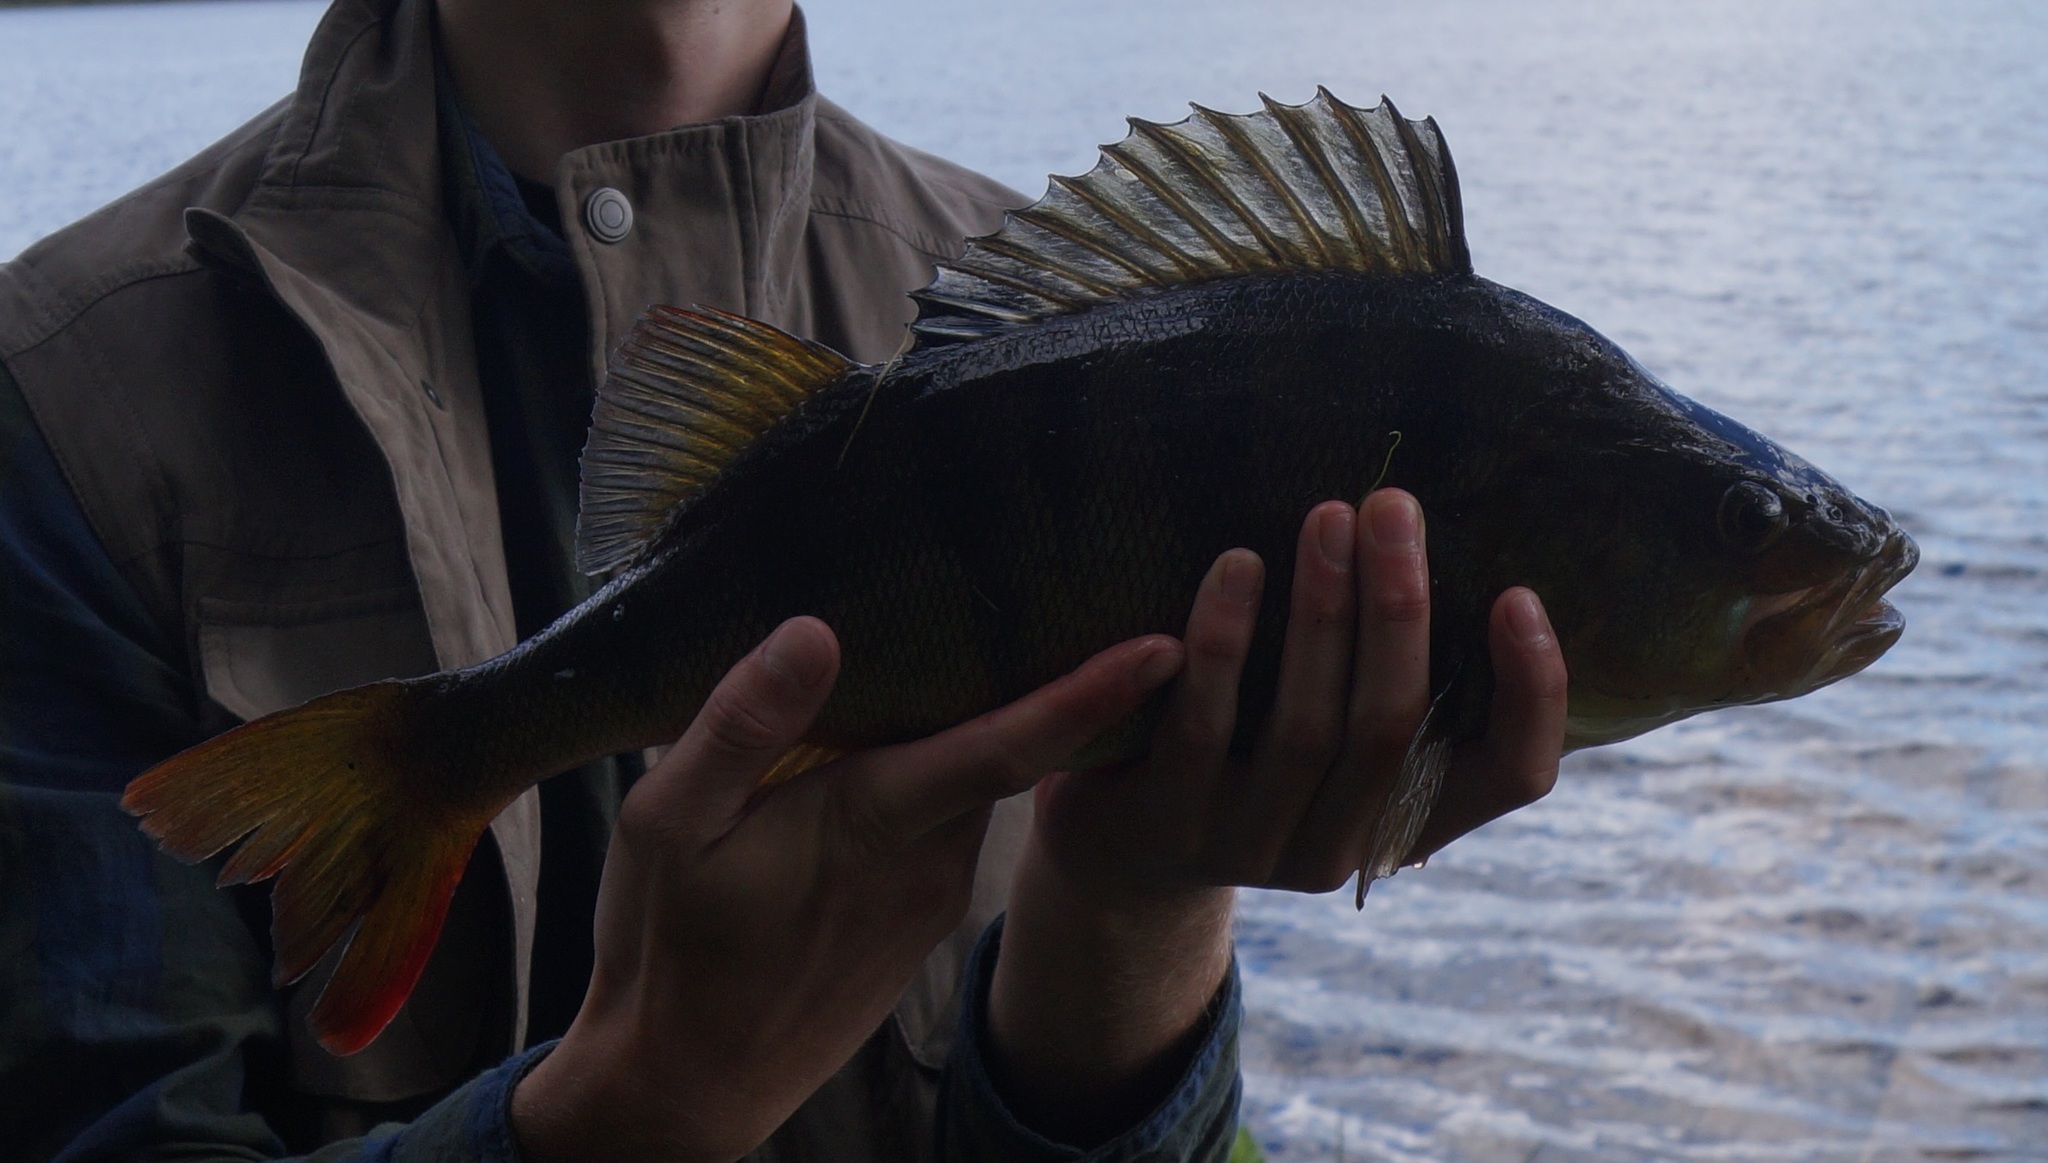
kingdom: Animalia
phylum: Chordata
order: Perciformes
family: Percidae
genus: Perca
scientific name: Perca fluviatilis
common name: Perch
